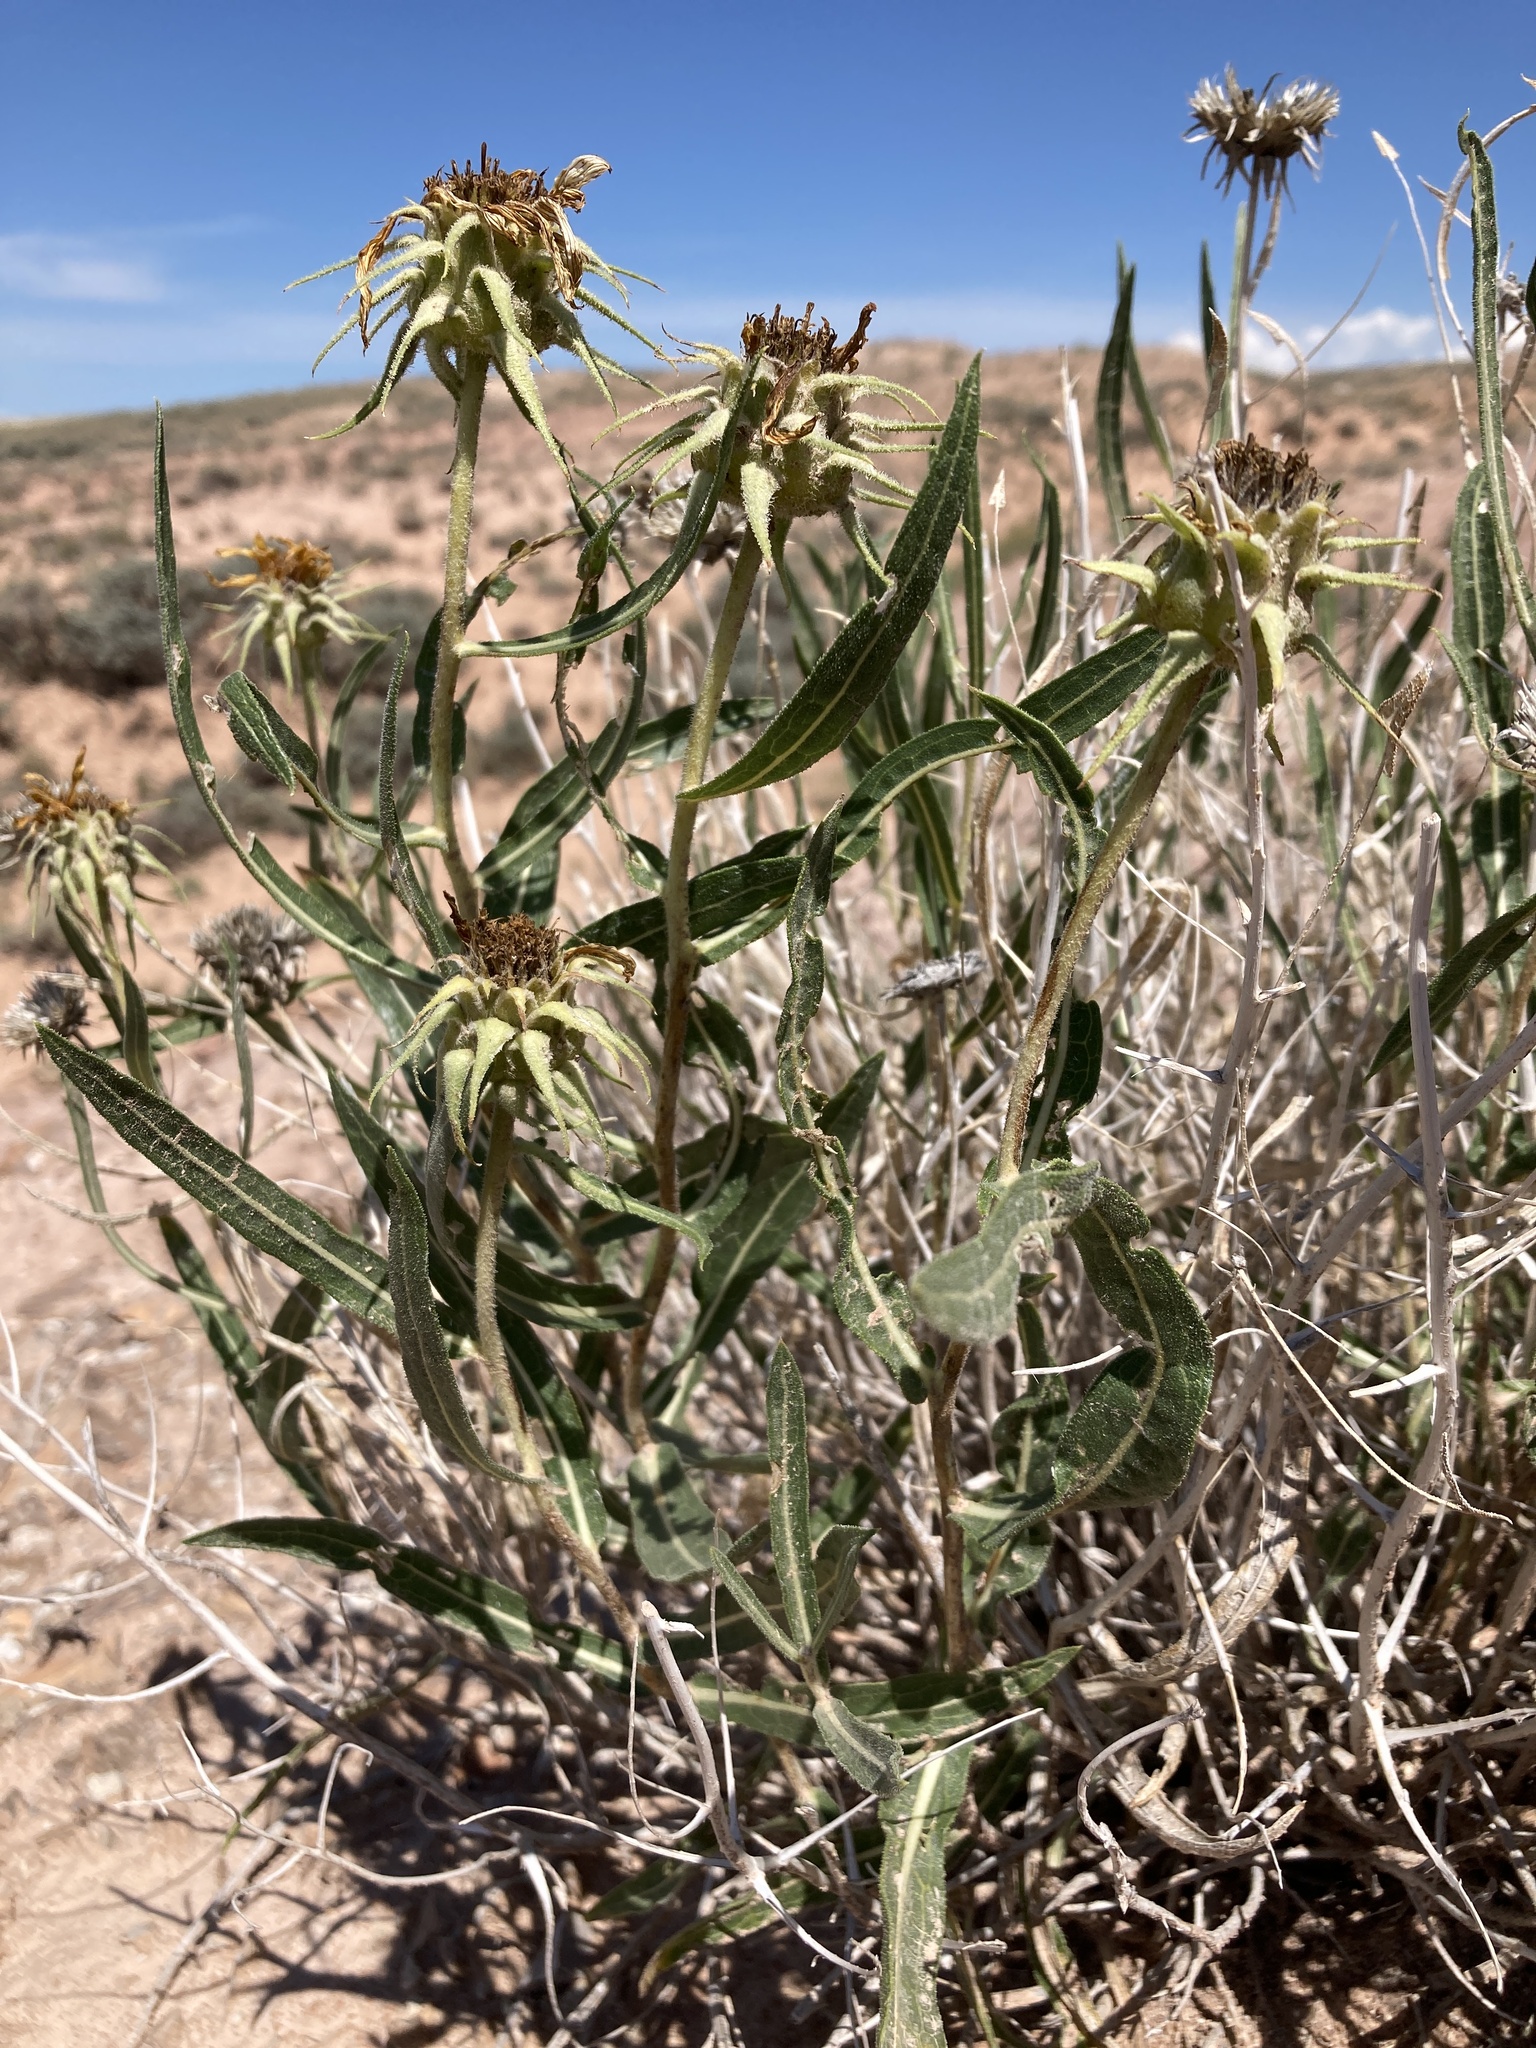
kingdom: Plantae
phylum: Tracheophyta
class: Magnoliopsida
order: Asterales
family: Asteraceae
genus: Scabrethia
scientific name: Scabrethia scabra
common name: Rough mules's-ears
